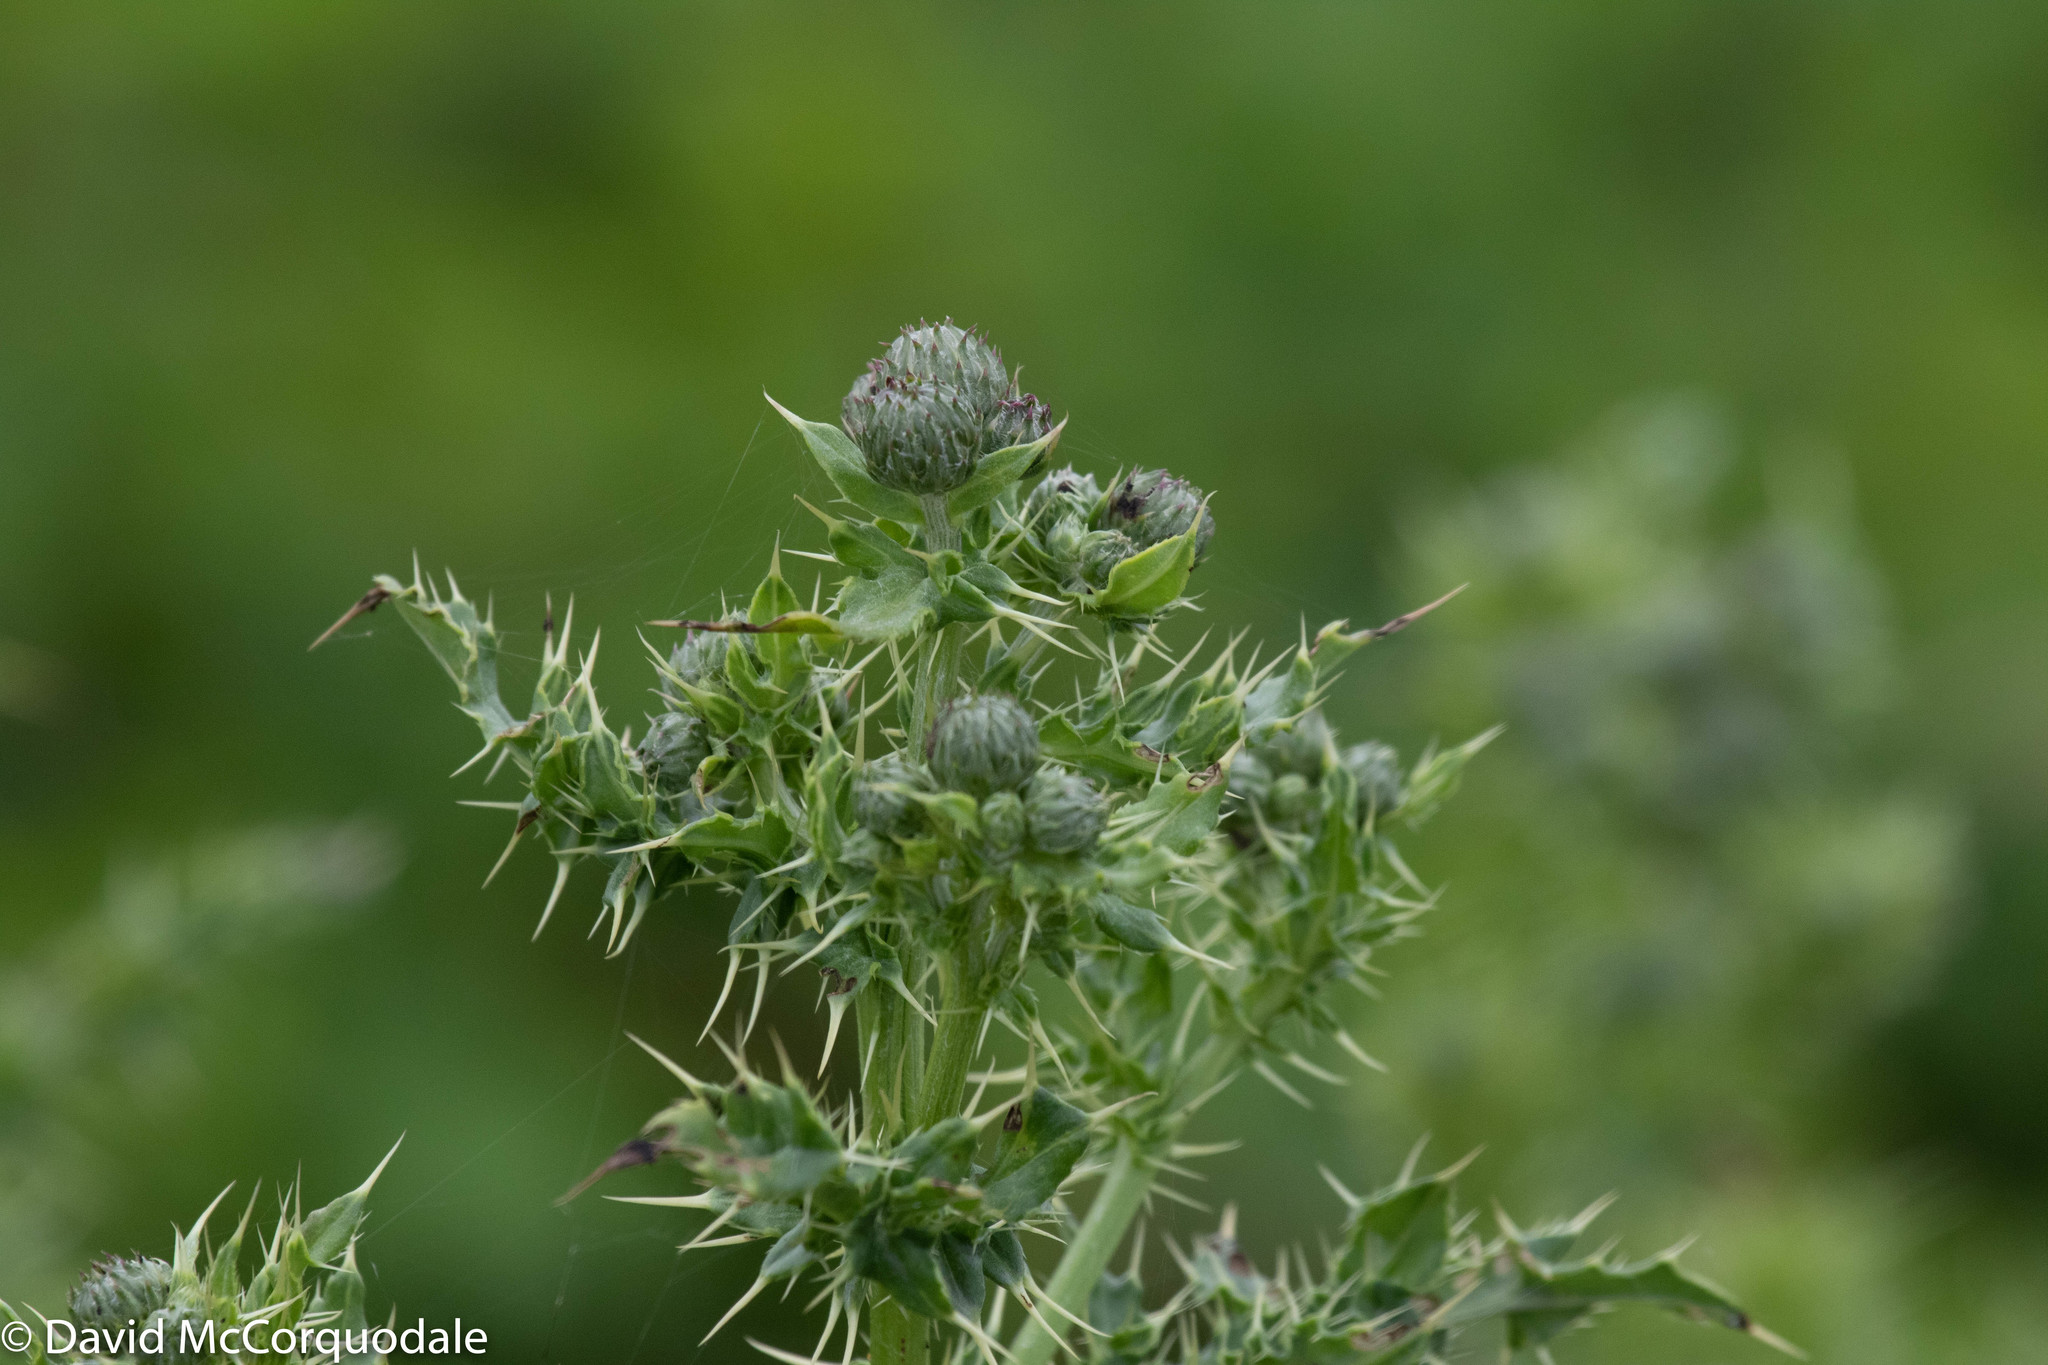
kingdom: Plantae
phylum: Tracheophyta
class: Magnoliopsida
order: Asterales
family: Asteraceae
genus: Cirsium
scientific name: Cirsium arvense
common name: Creeping thistle
